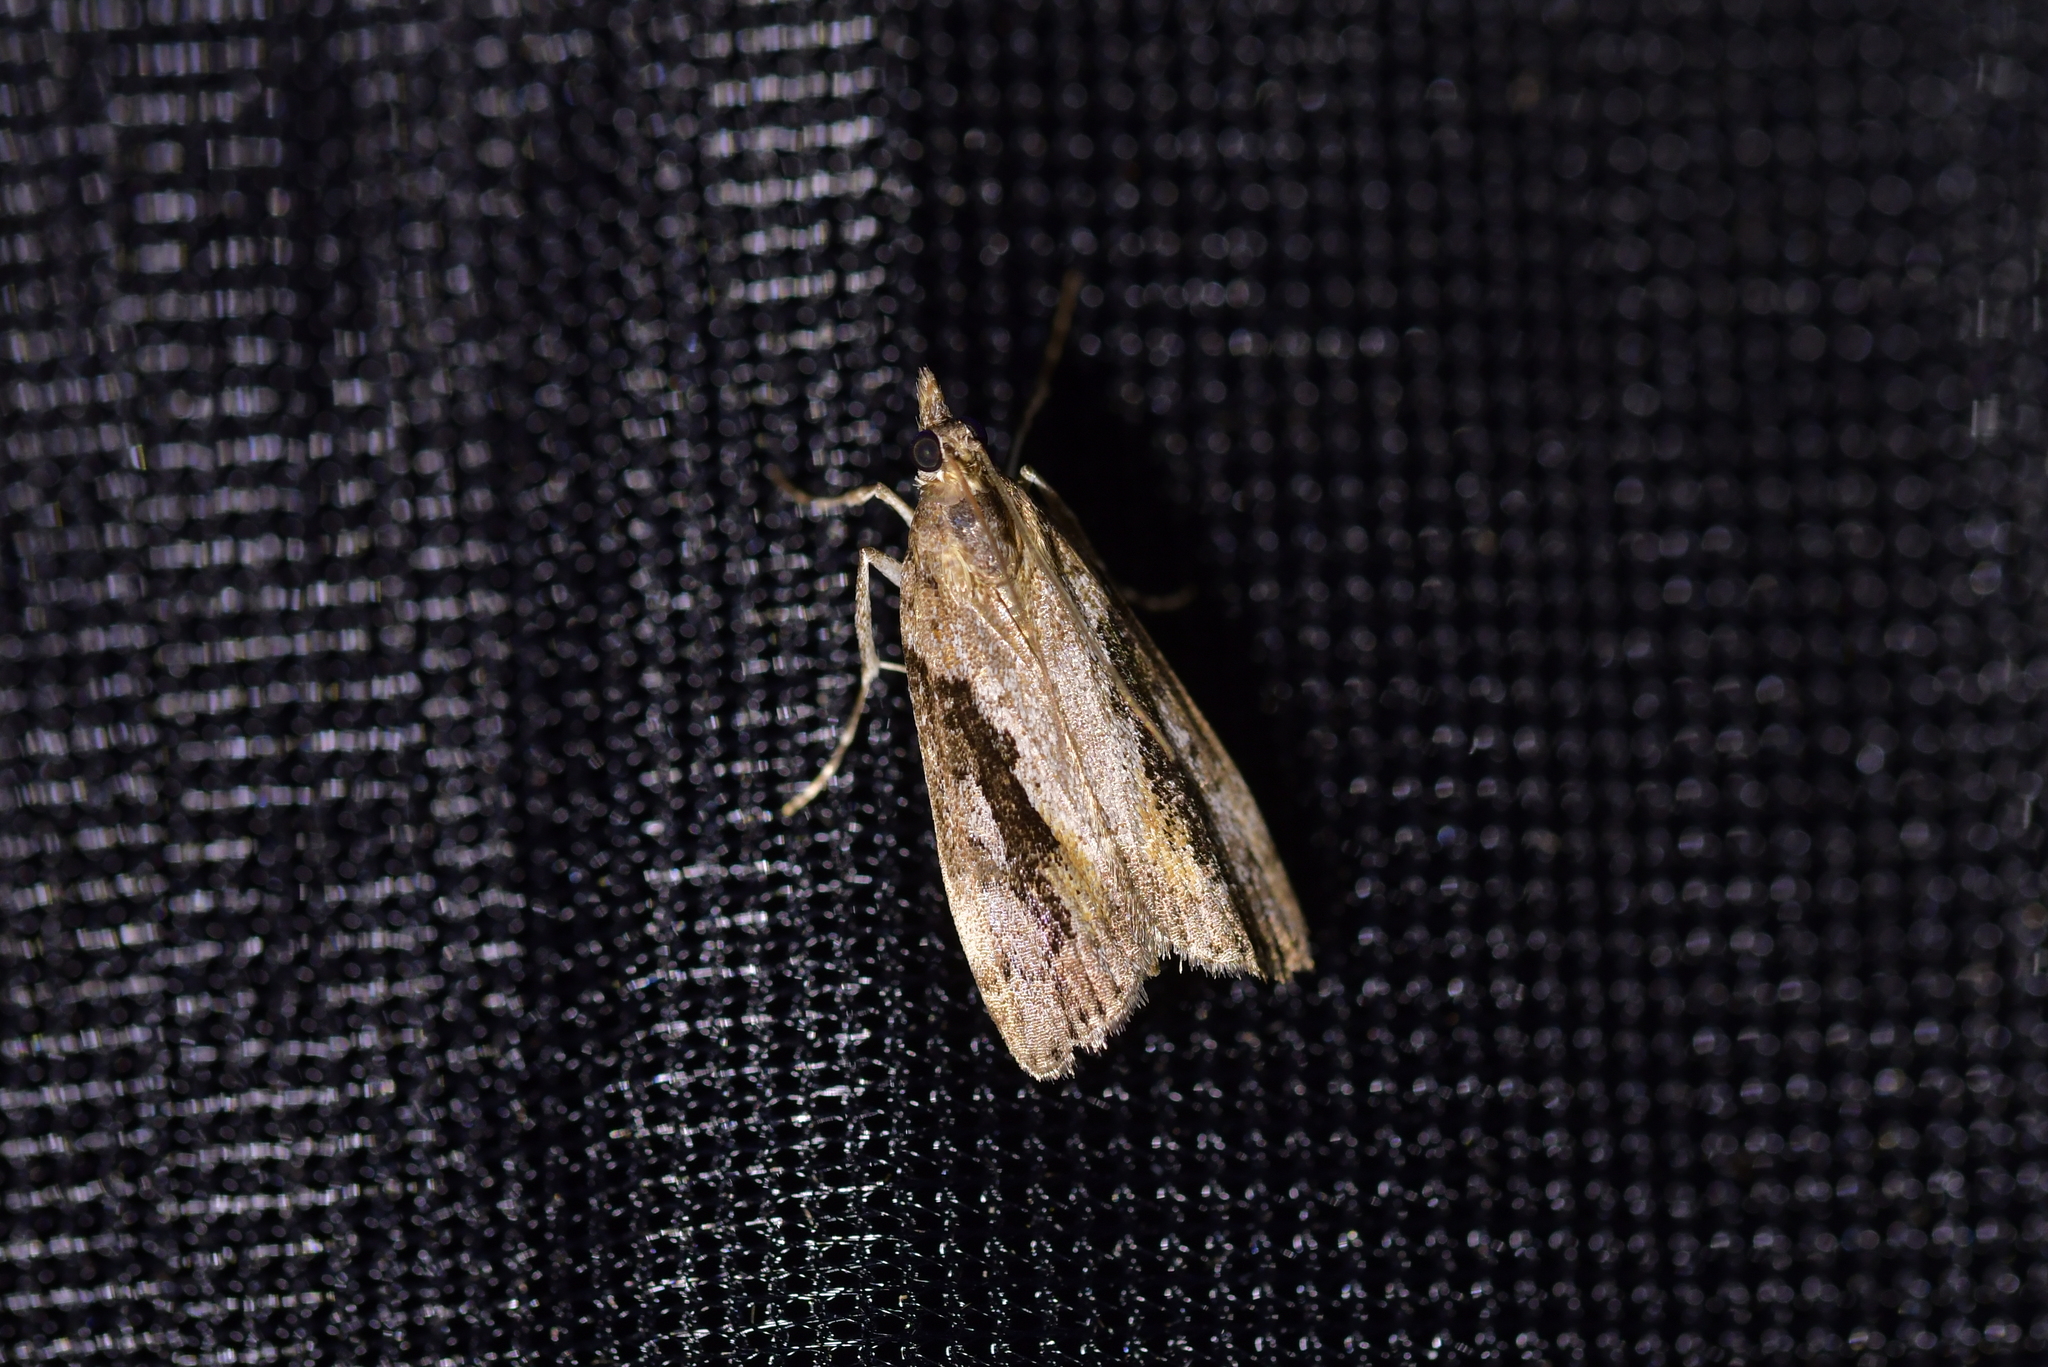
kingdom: Animalia
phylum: Arthropoda
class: Insecta
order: Lepidoptera
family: Crambidae
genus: Eudonia
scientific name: Eudonia submarginalis
